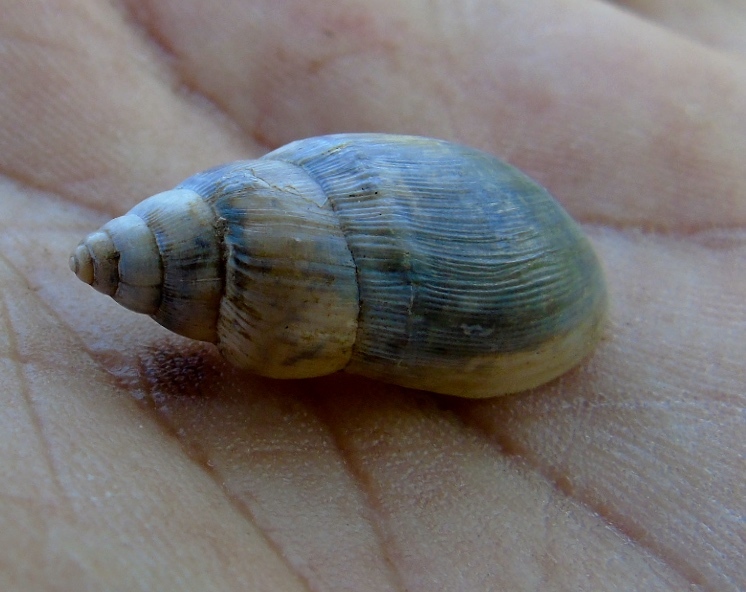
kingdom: Animalia
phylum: Mollusca
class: Gastropoda
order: Stylommatophora
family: Spiraxidae
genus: Euglandina
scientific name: Euglandina
